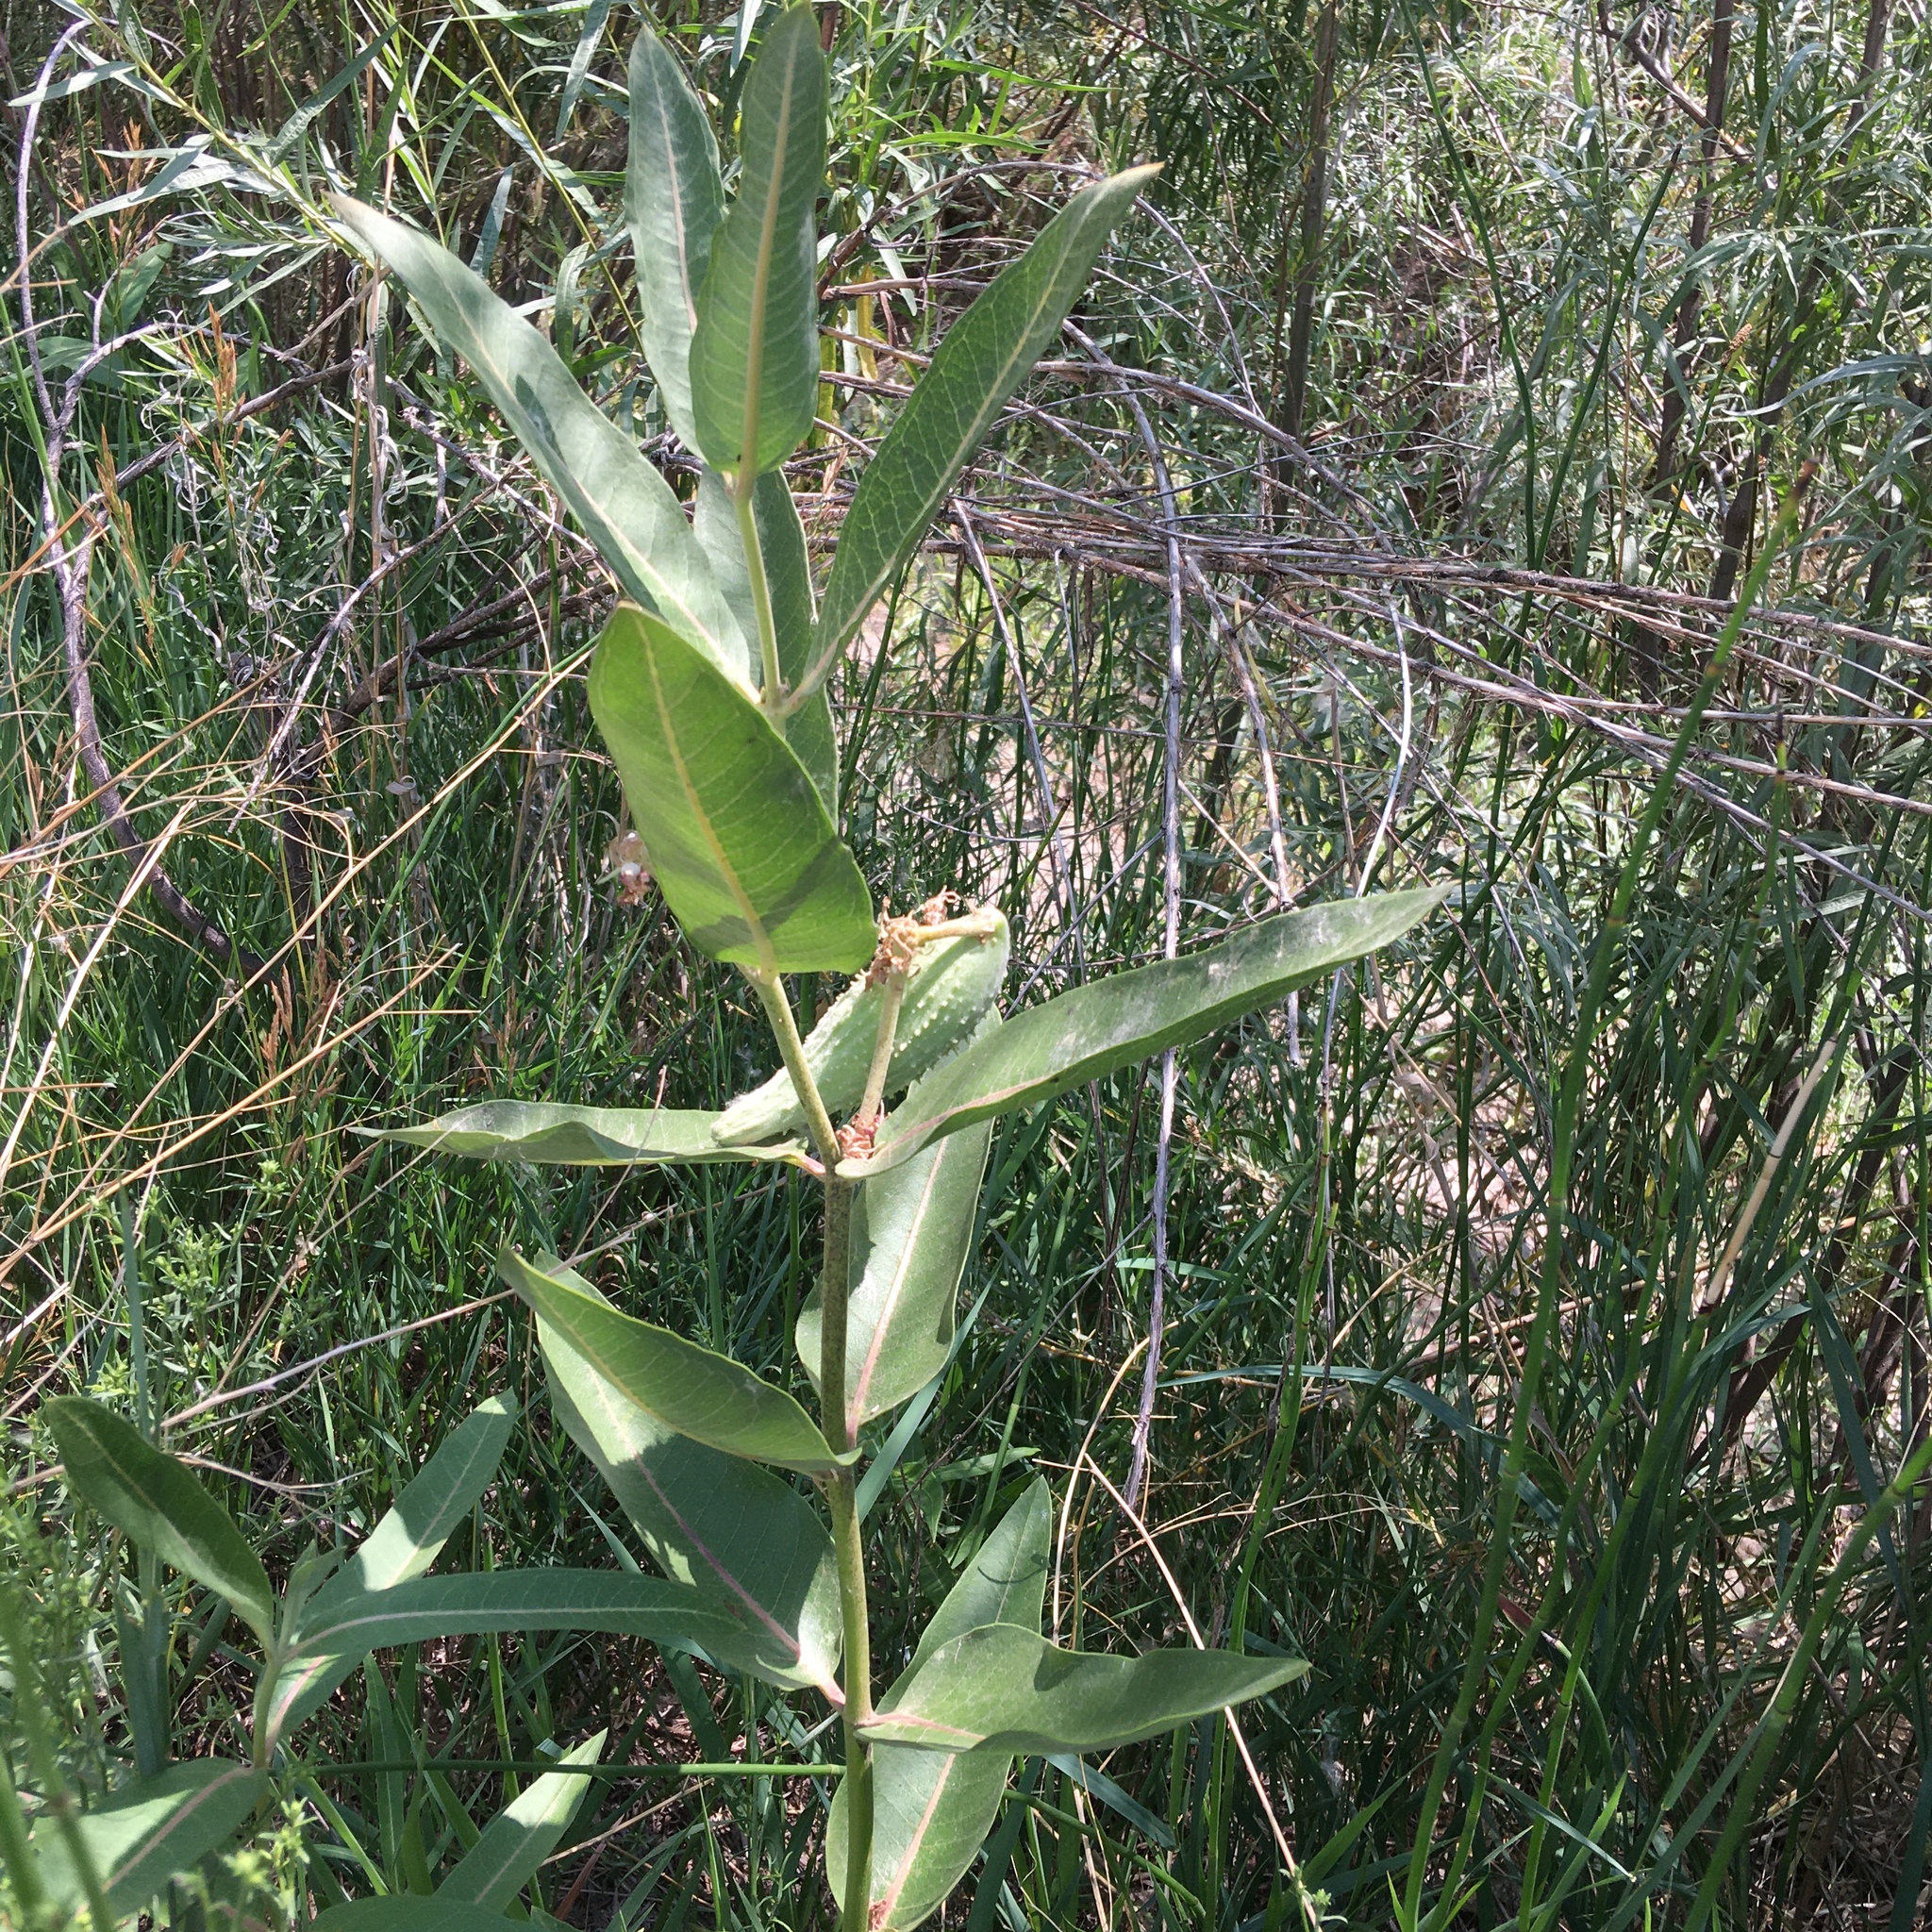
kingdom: Plantae
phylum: Tracheophyta
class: Magnoliopsida
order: Gentianales
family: Apocynaceae
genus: Asclepias
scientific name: Asclepias speciosa
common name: Showy milkweed
